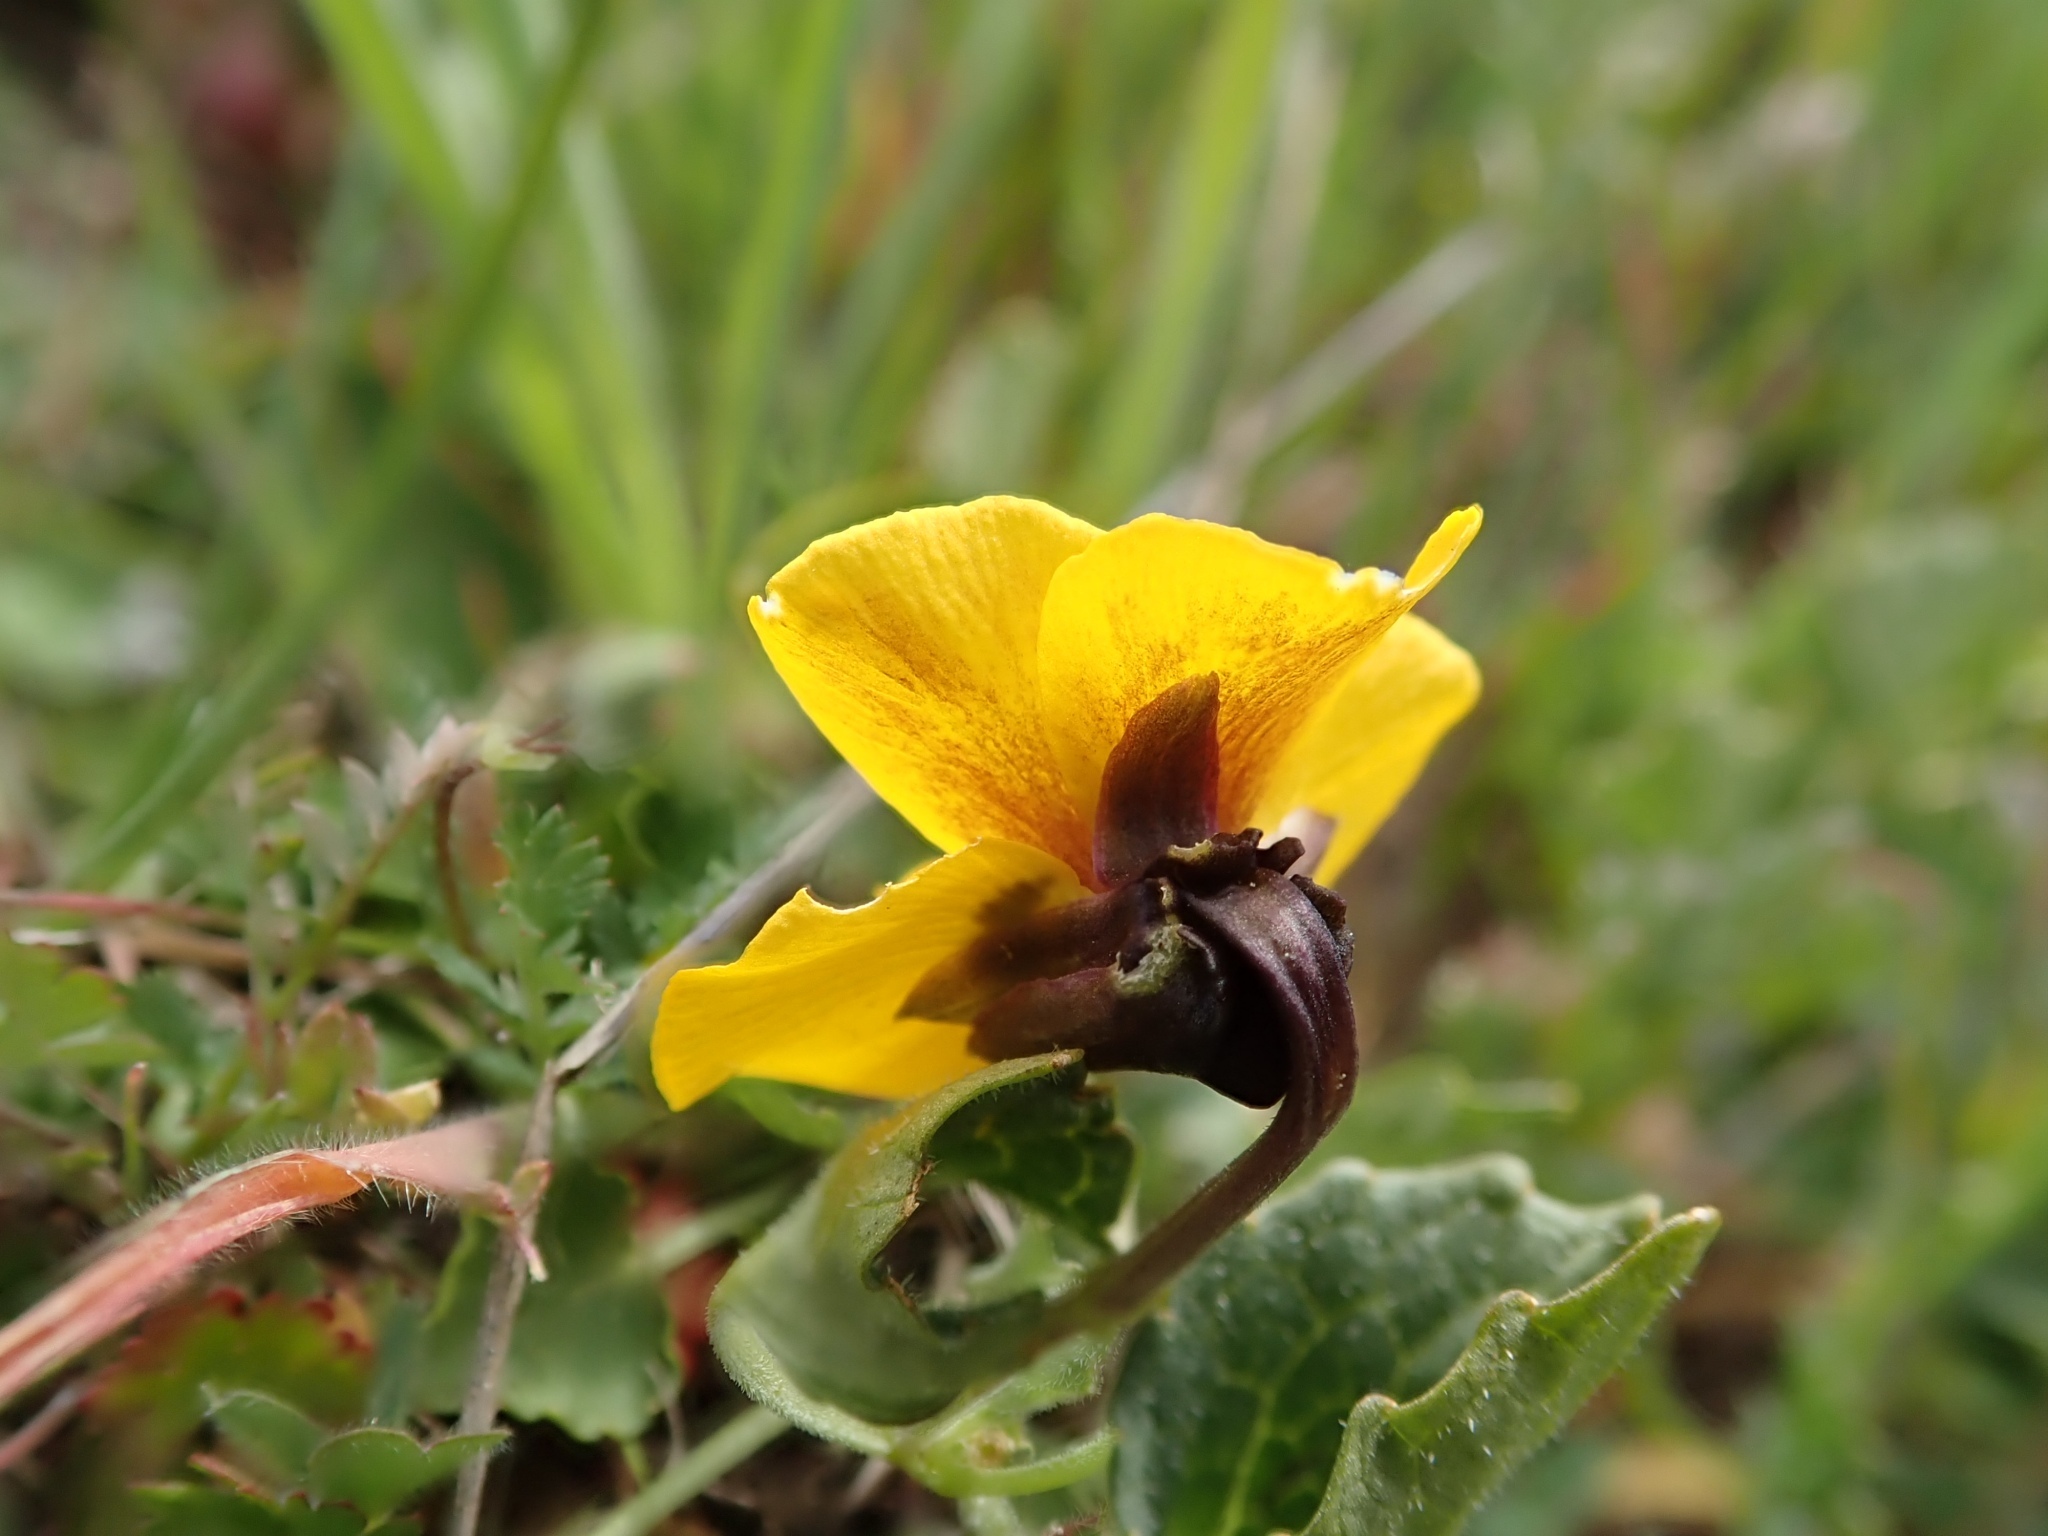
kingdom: Plantae
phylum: Tracheophyta
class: Magnoliopsida
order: Malpighiales
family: Violaceae
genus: Viola
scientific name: Viola pedunculata
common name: California golden violet
